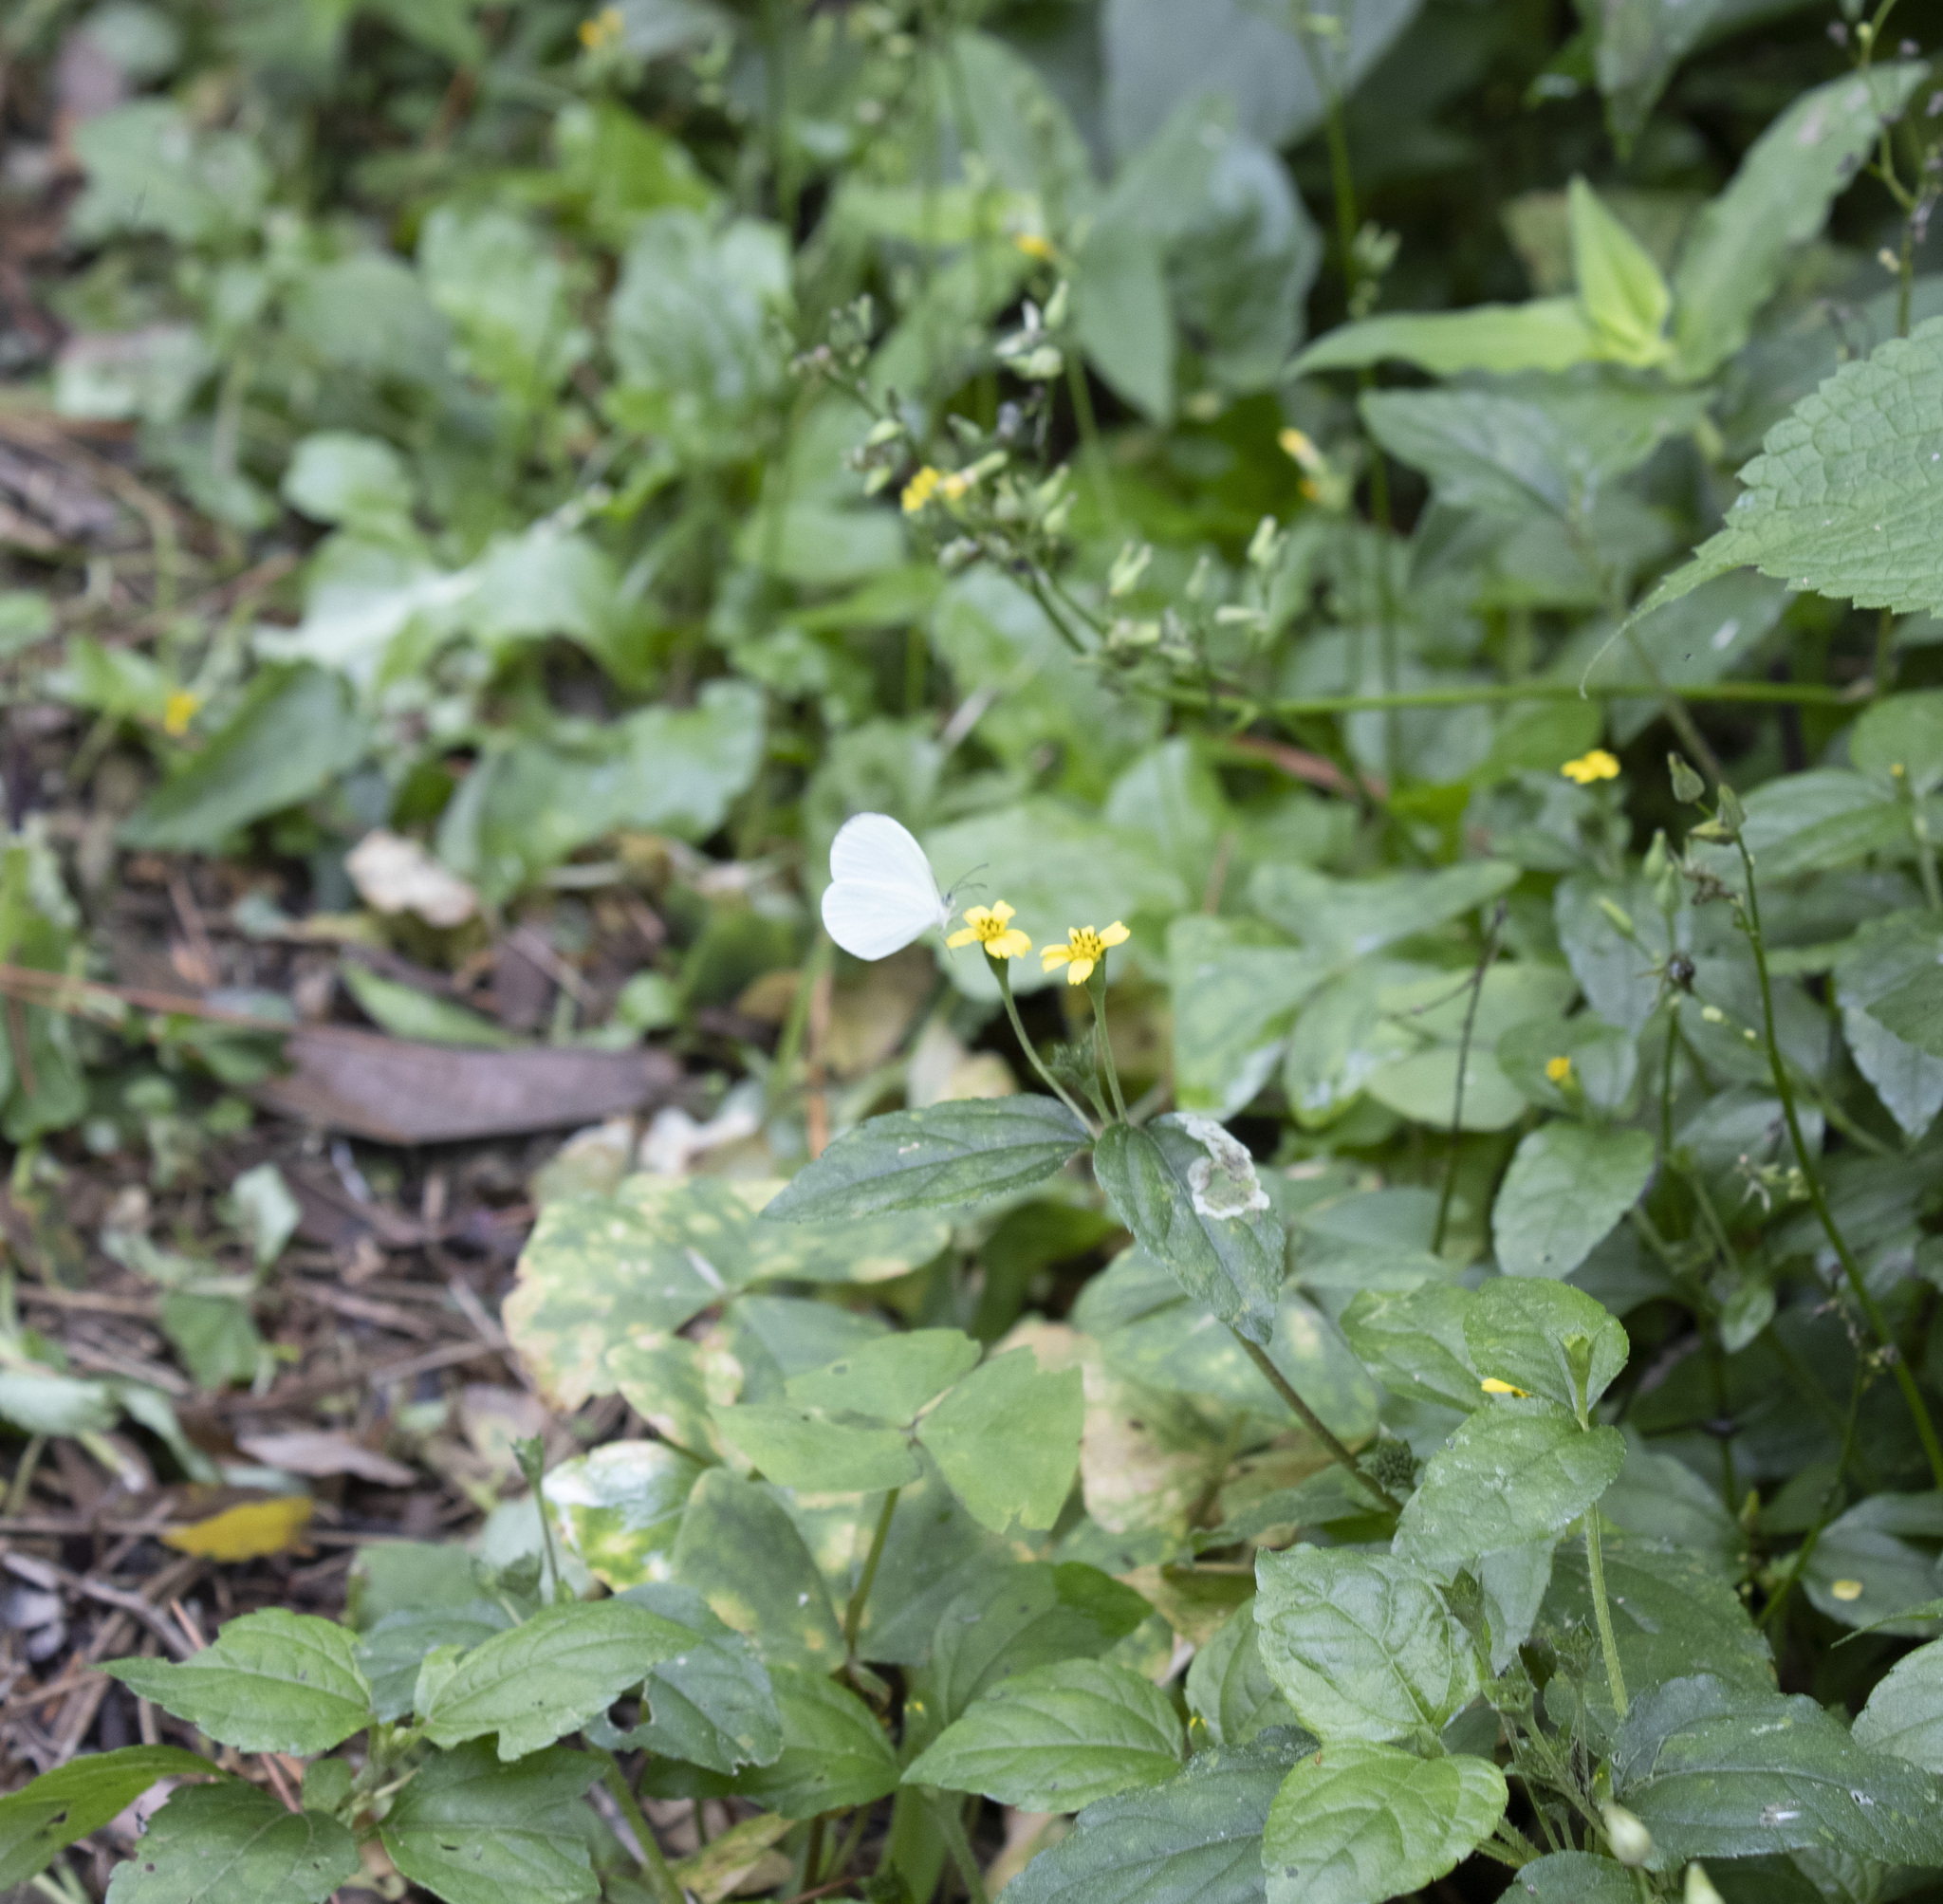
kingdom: Animalia
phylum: Arthropoda
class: Insecta
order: Lepidoptera
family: Pieridae
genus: Leucidia
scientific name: Leucidia elvina
